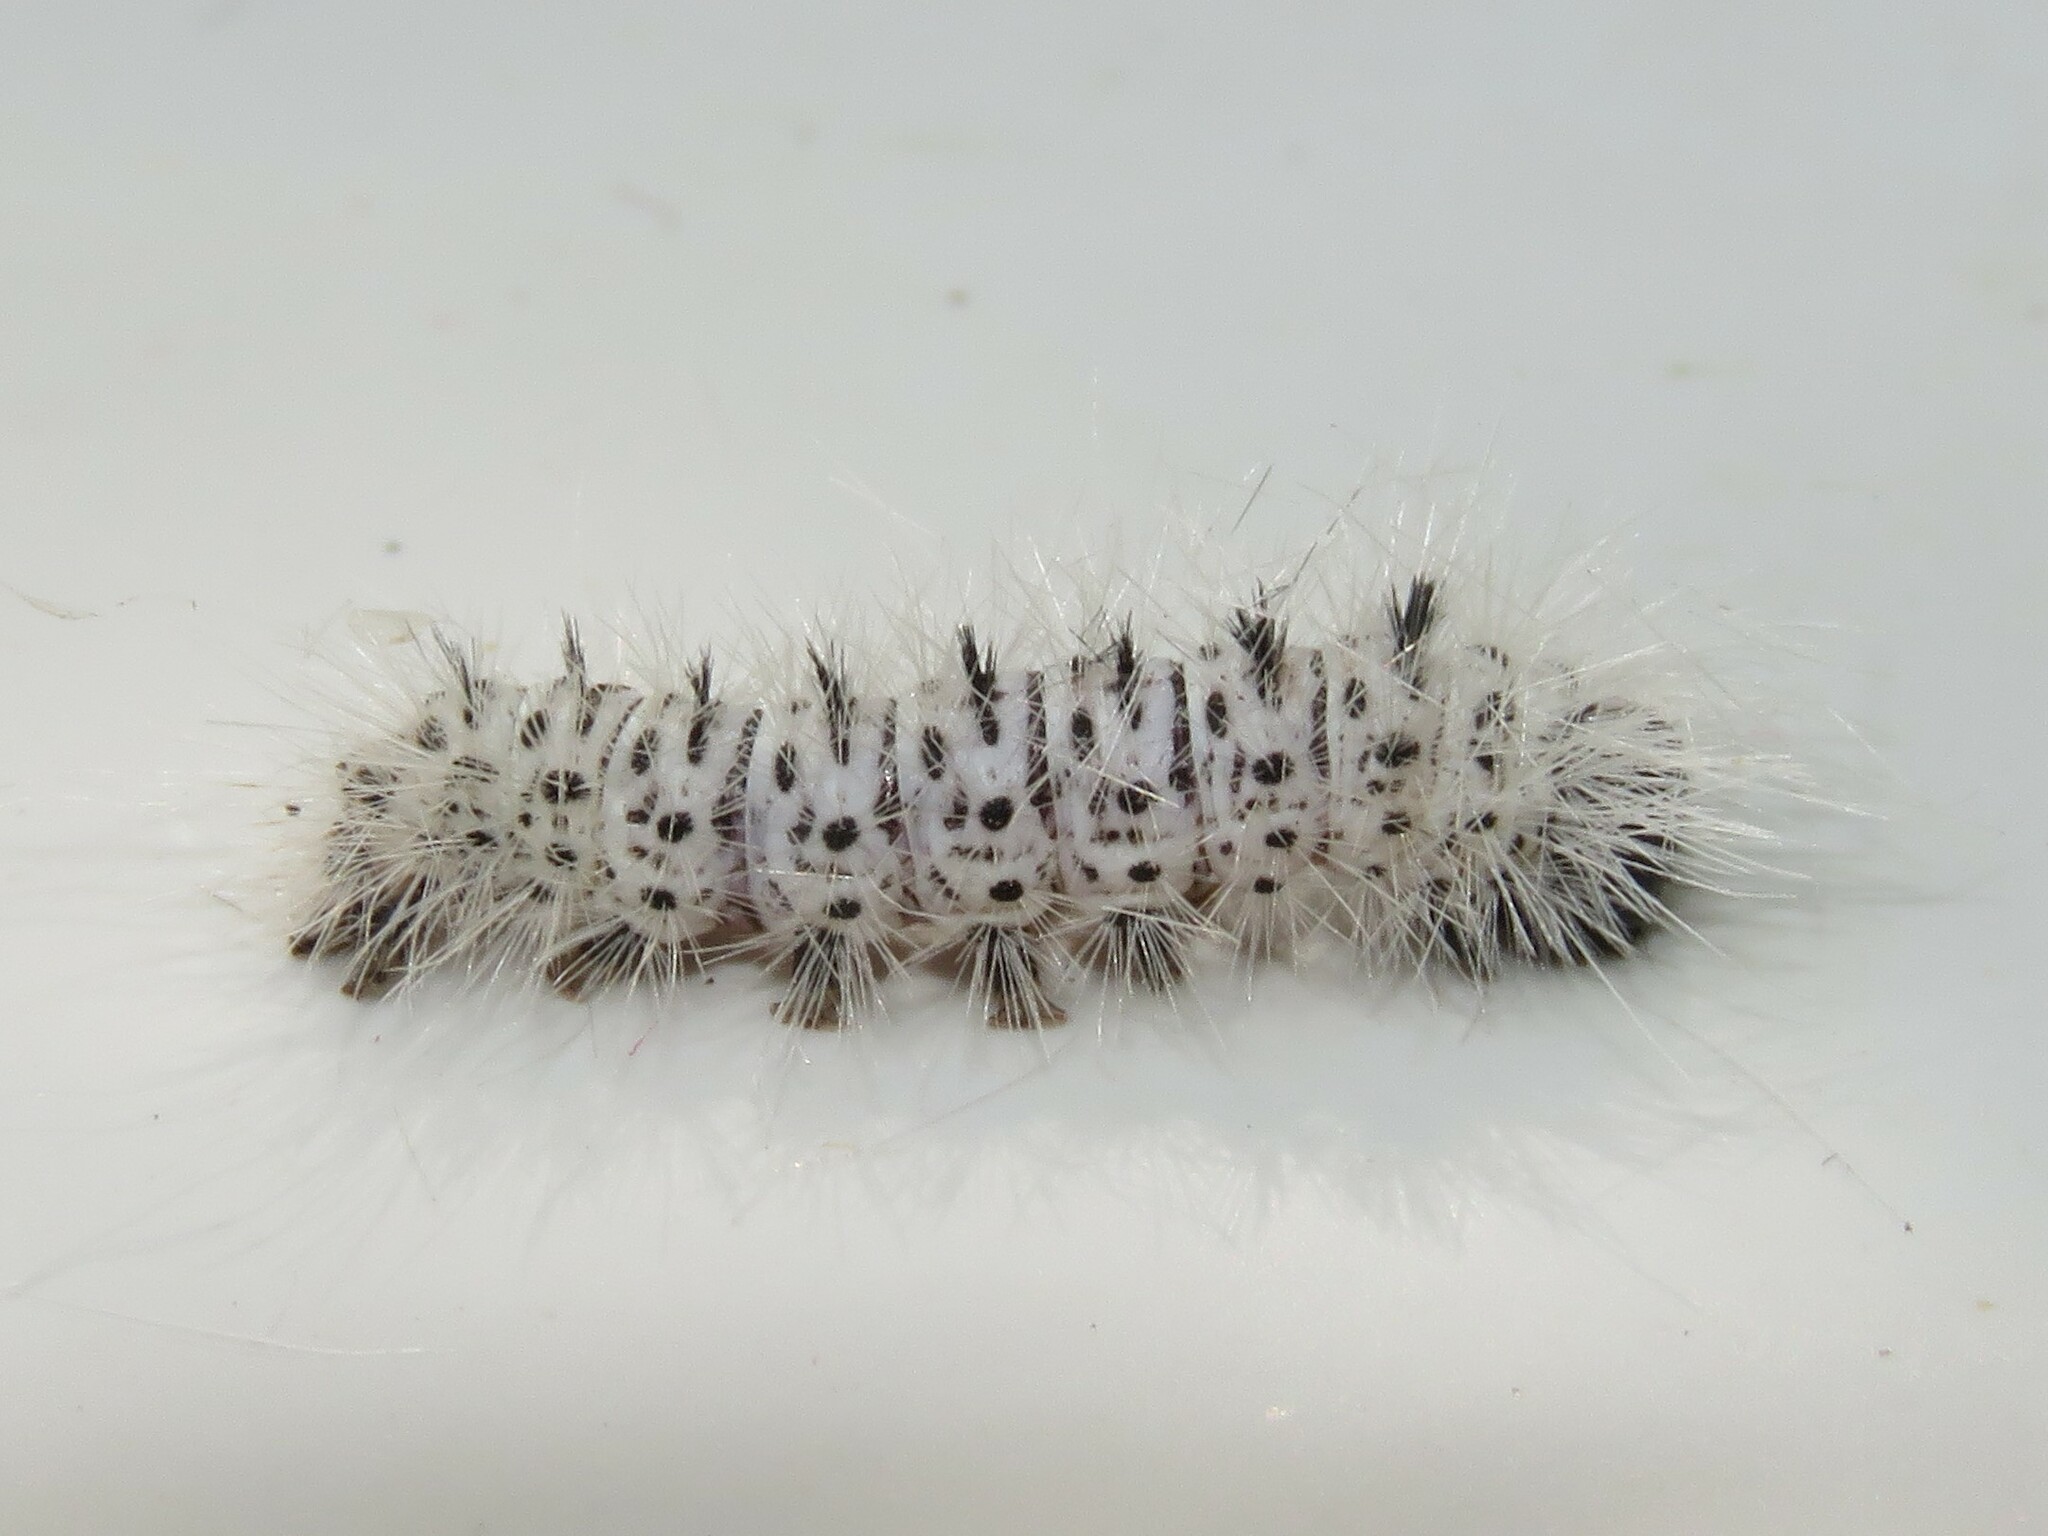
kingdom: Animalia
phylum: Arthropoda
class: Insecta
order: Lepidoptera
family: Erebidae
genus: Lophocampa
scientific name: Lophocampa caryae
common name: Hickory tussock moth
